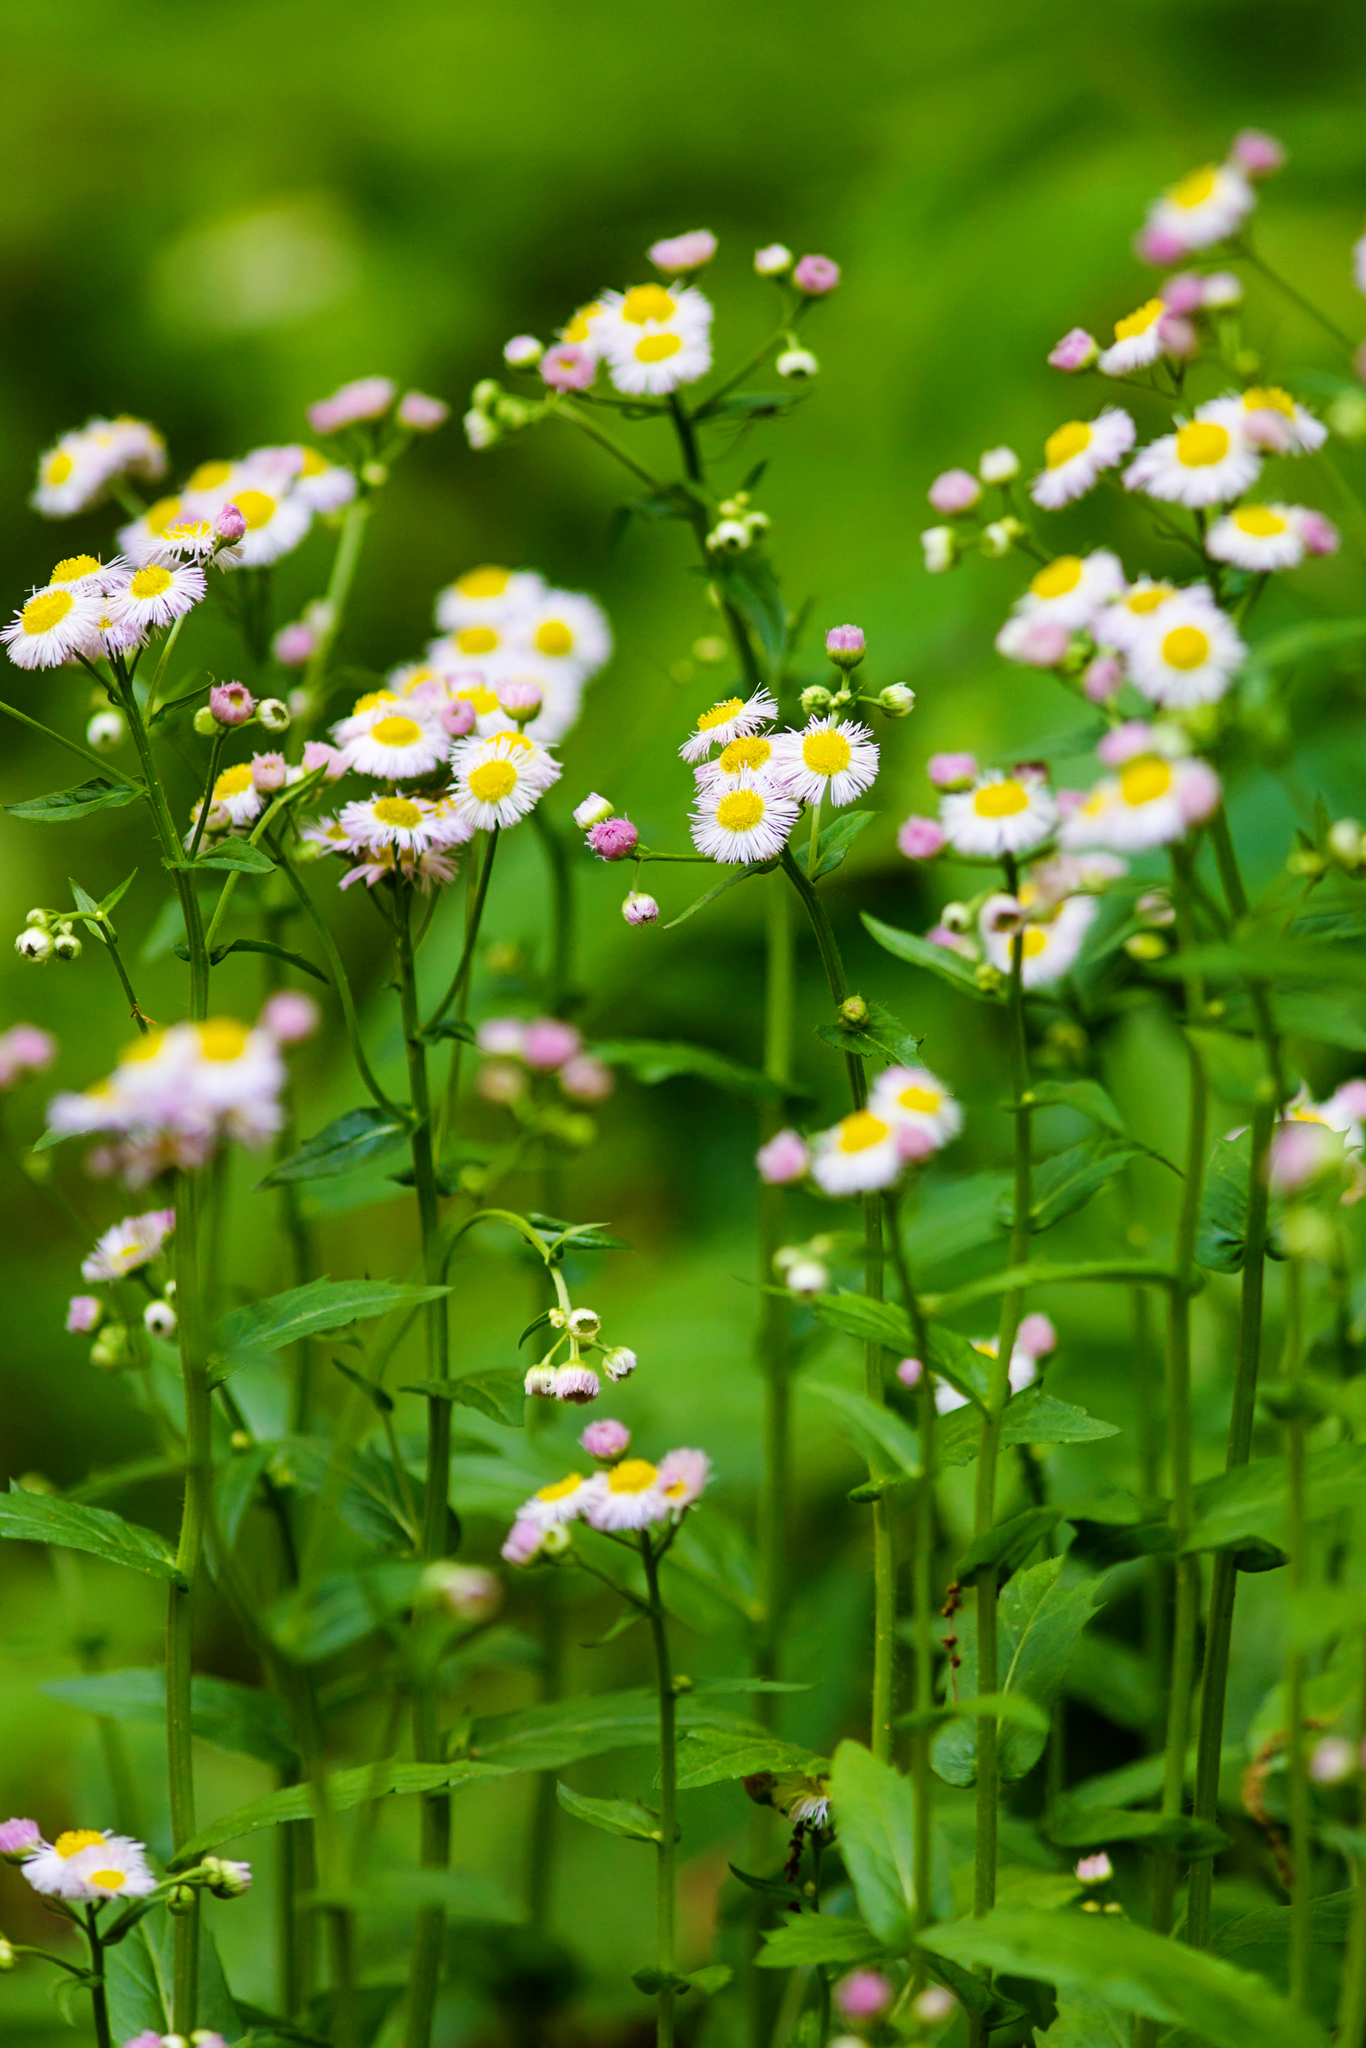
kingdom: Plantae
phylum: Tracheophyta
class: Magnoliopsida
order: Asterales
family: Asteraceae
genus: Erigeron
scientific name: Erigeron philadelphicus
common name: Robin's-plantain
